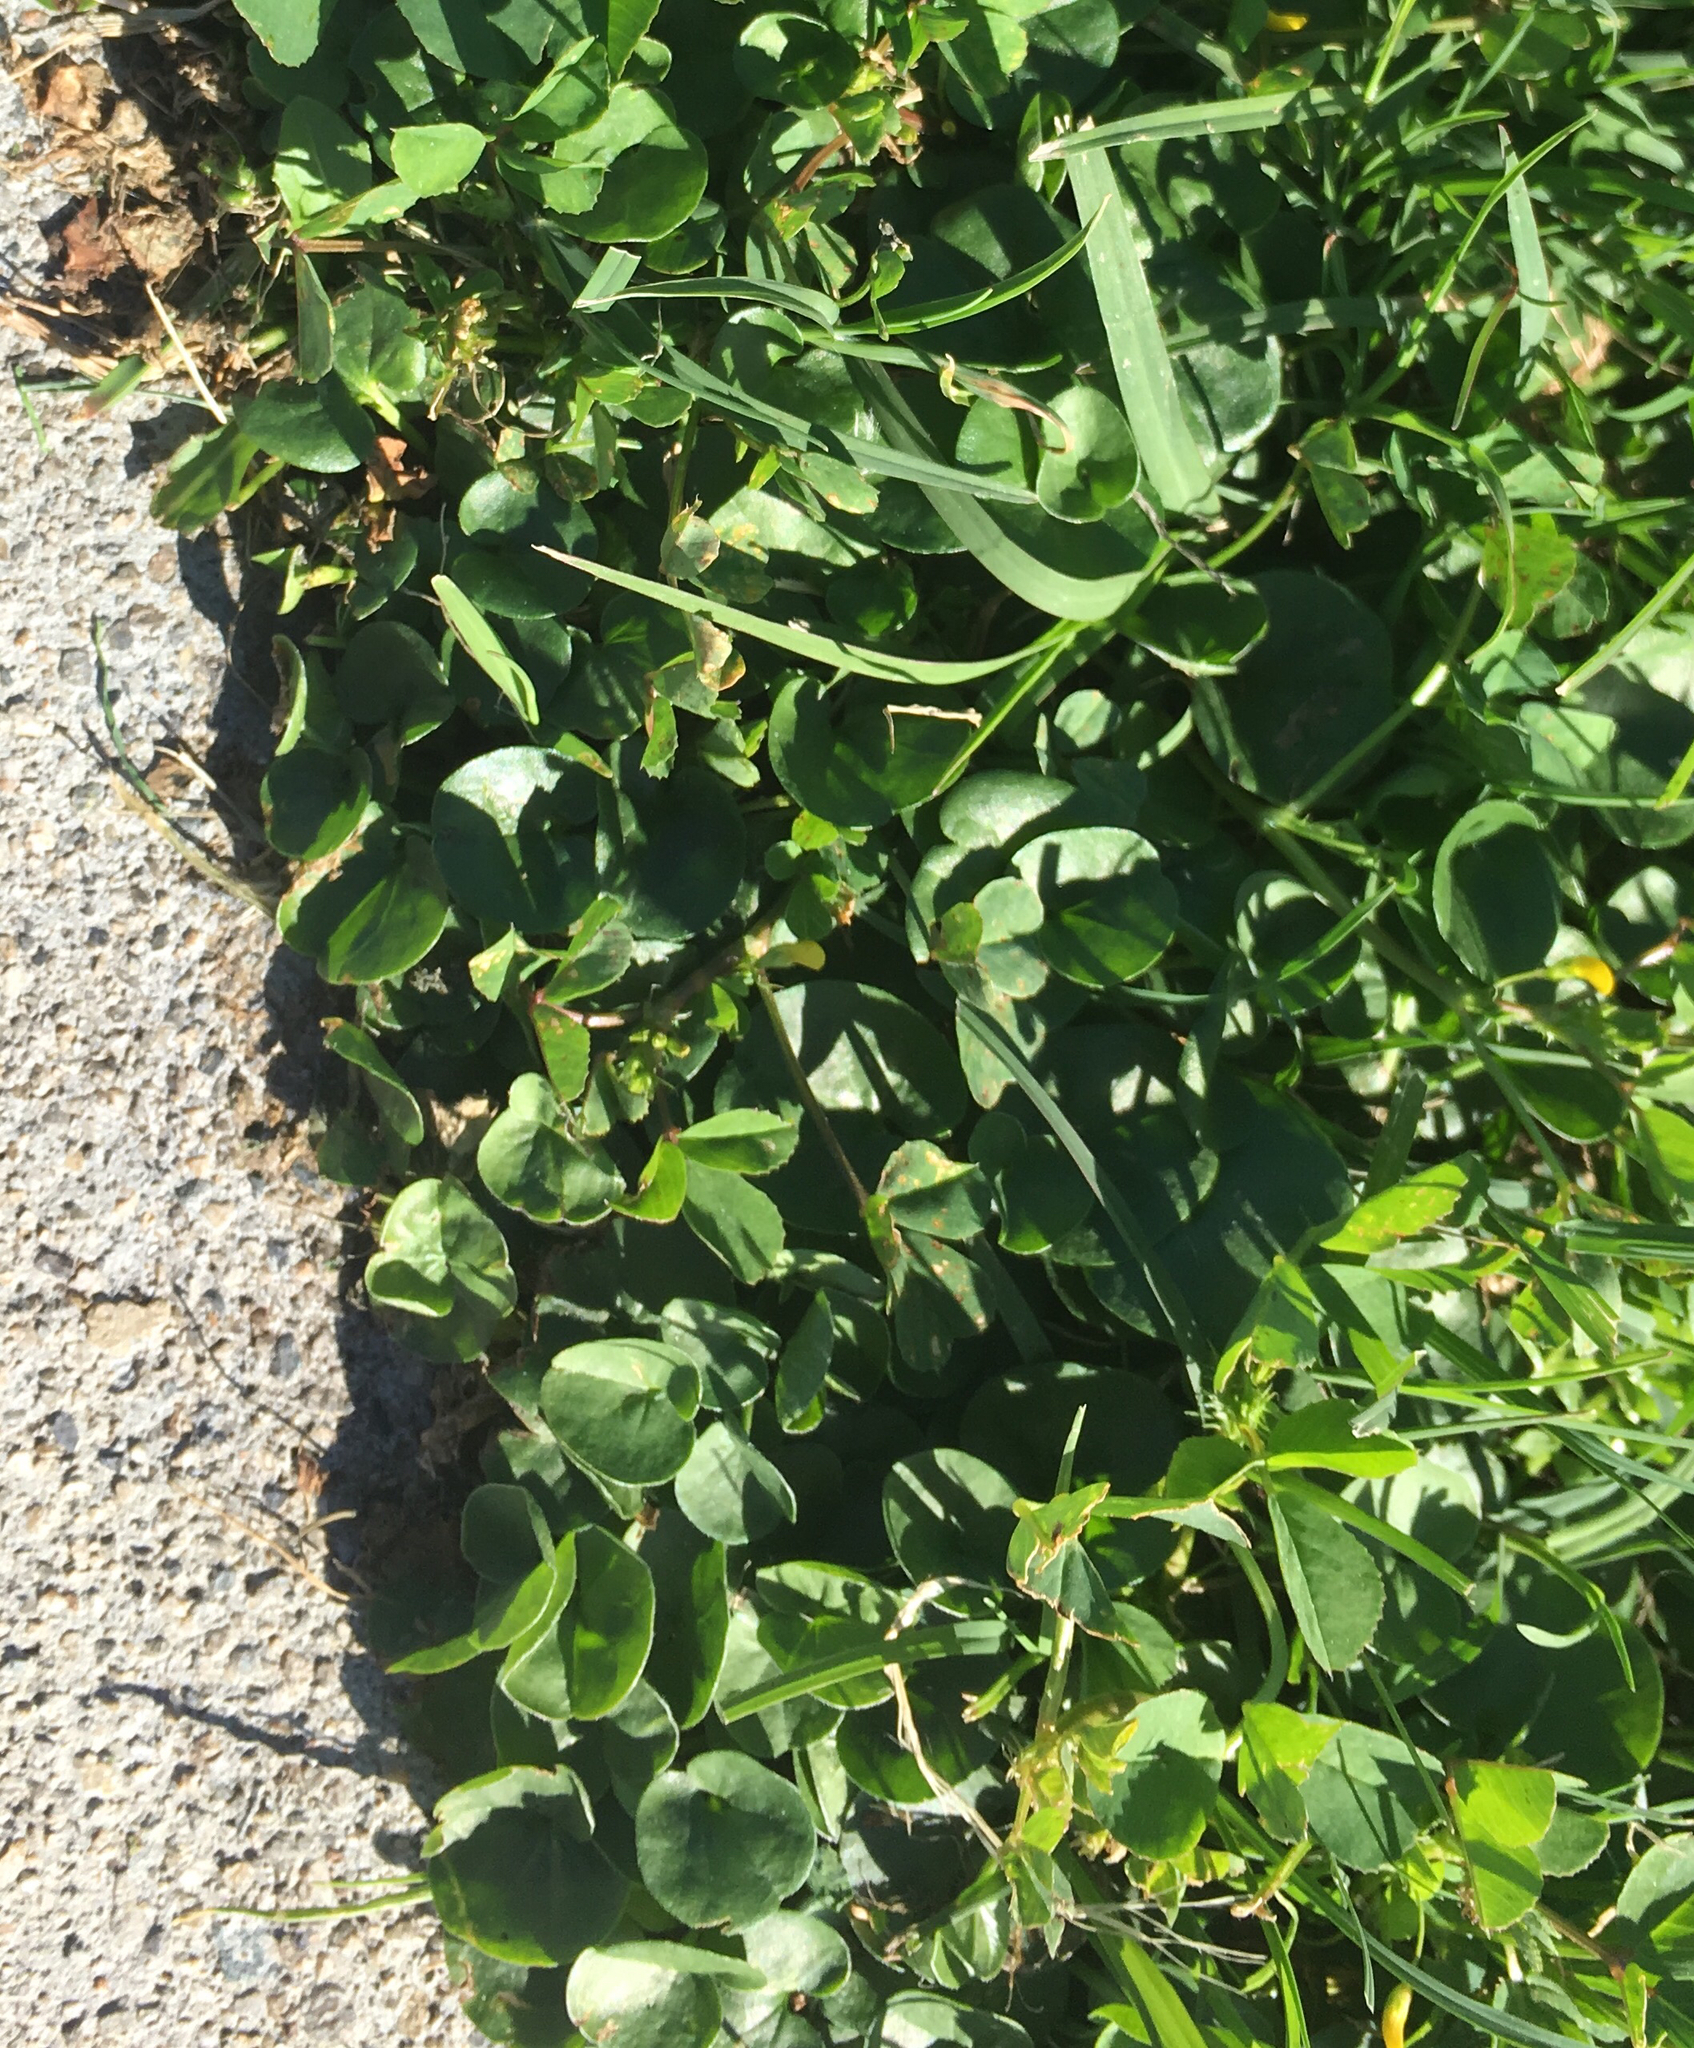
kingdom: Plantae
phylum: Tracheophyta
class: Magnoliopsida
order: Solanales
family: Convolvulaceae
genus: Dichondra
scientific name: Dichondra micrantha
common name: Kidneyweed
